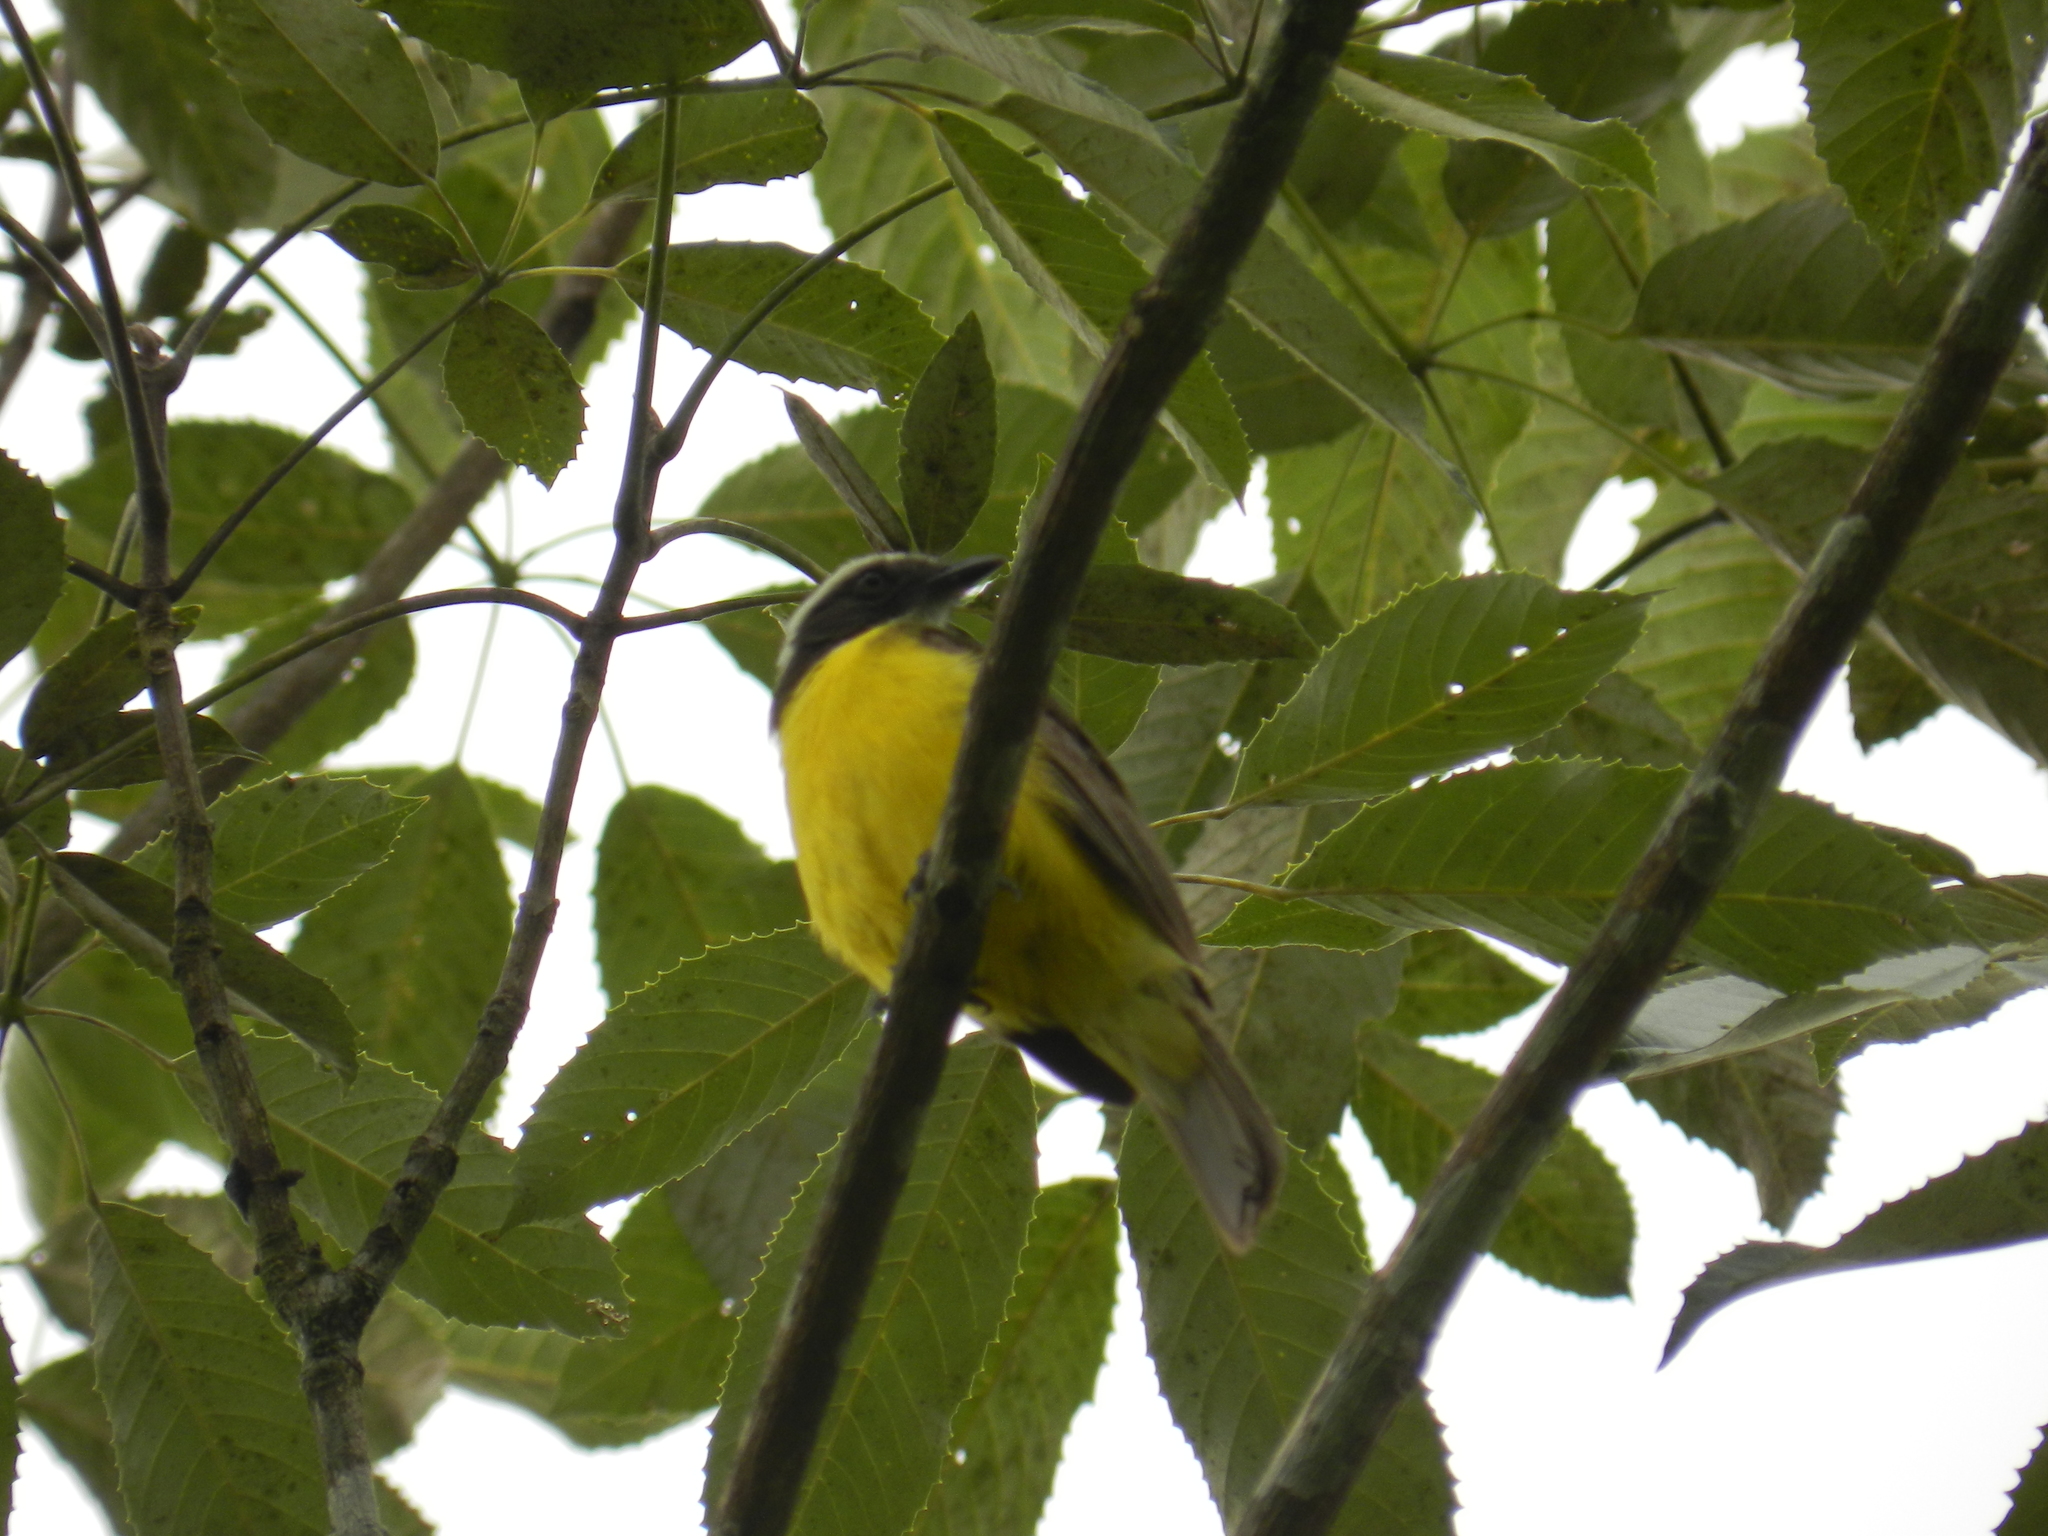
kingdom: Animalia
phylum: Chordata
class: Aves
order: Passeriformes
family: Tyrannidae
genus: Myiozetetes
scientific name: Myiozetetes similis
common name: Social flycatcher
